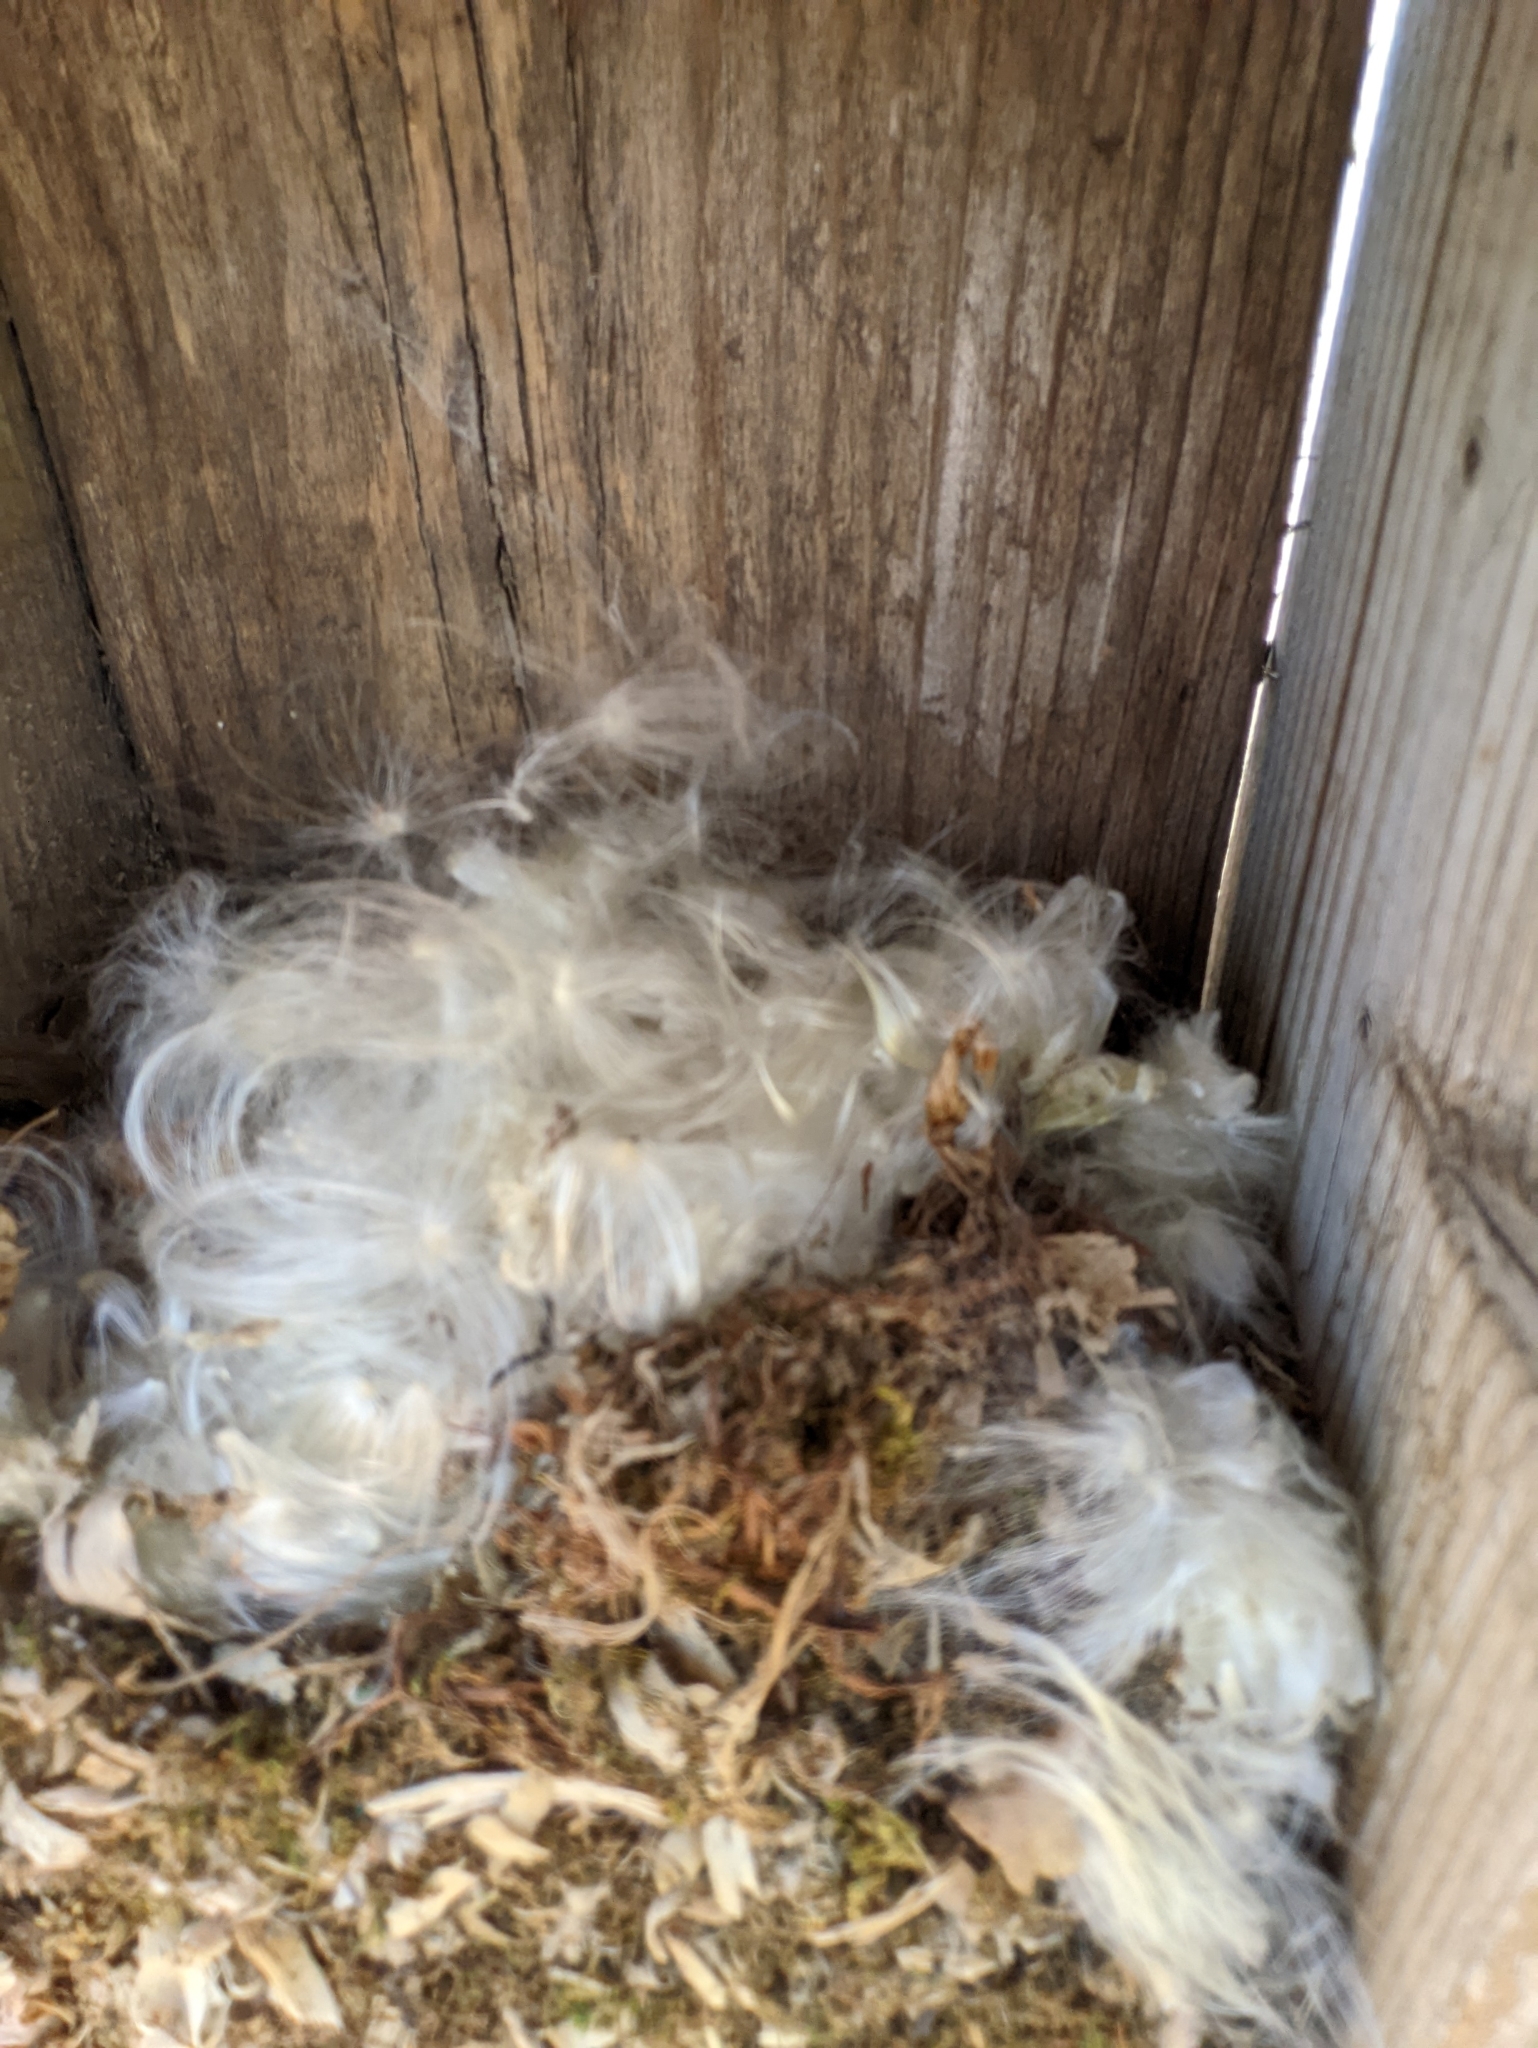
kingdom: Animalia
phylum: Chordata
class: Mammalia
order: Rodentia
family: Cricetidae
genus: Peromyscus
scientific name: Peromyscus
